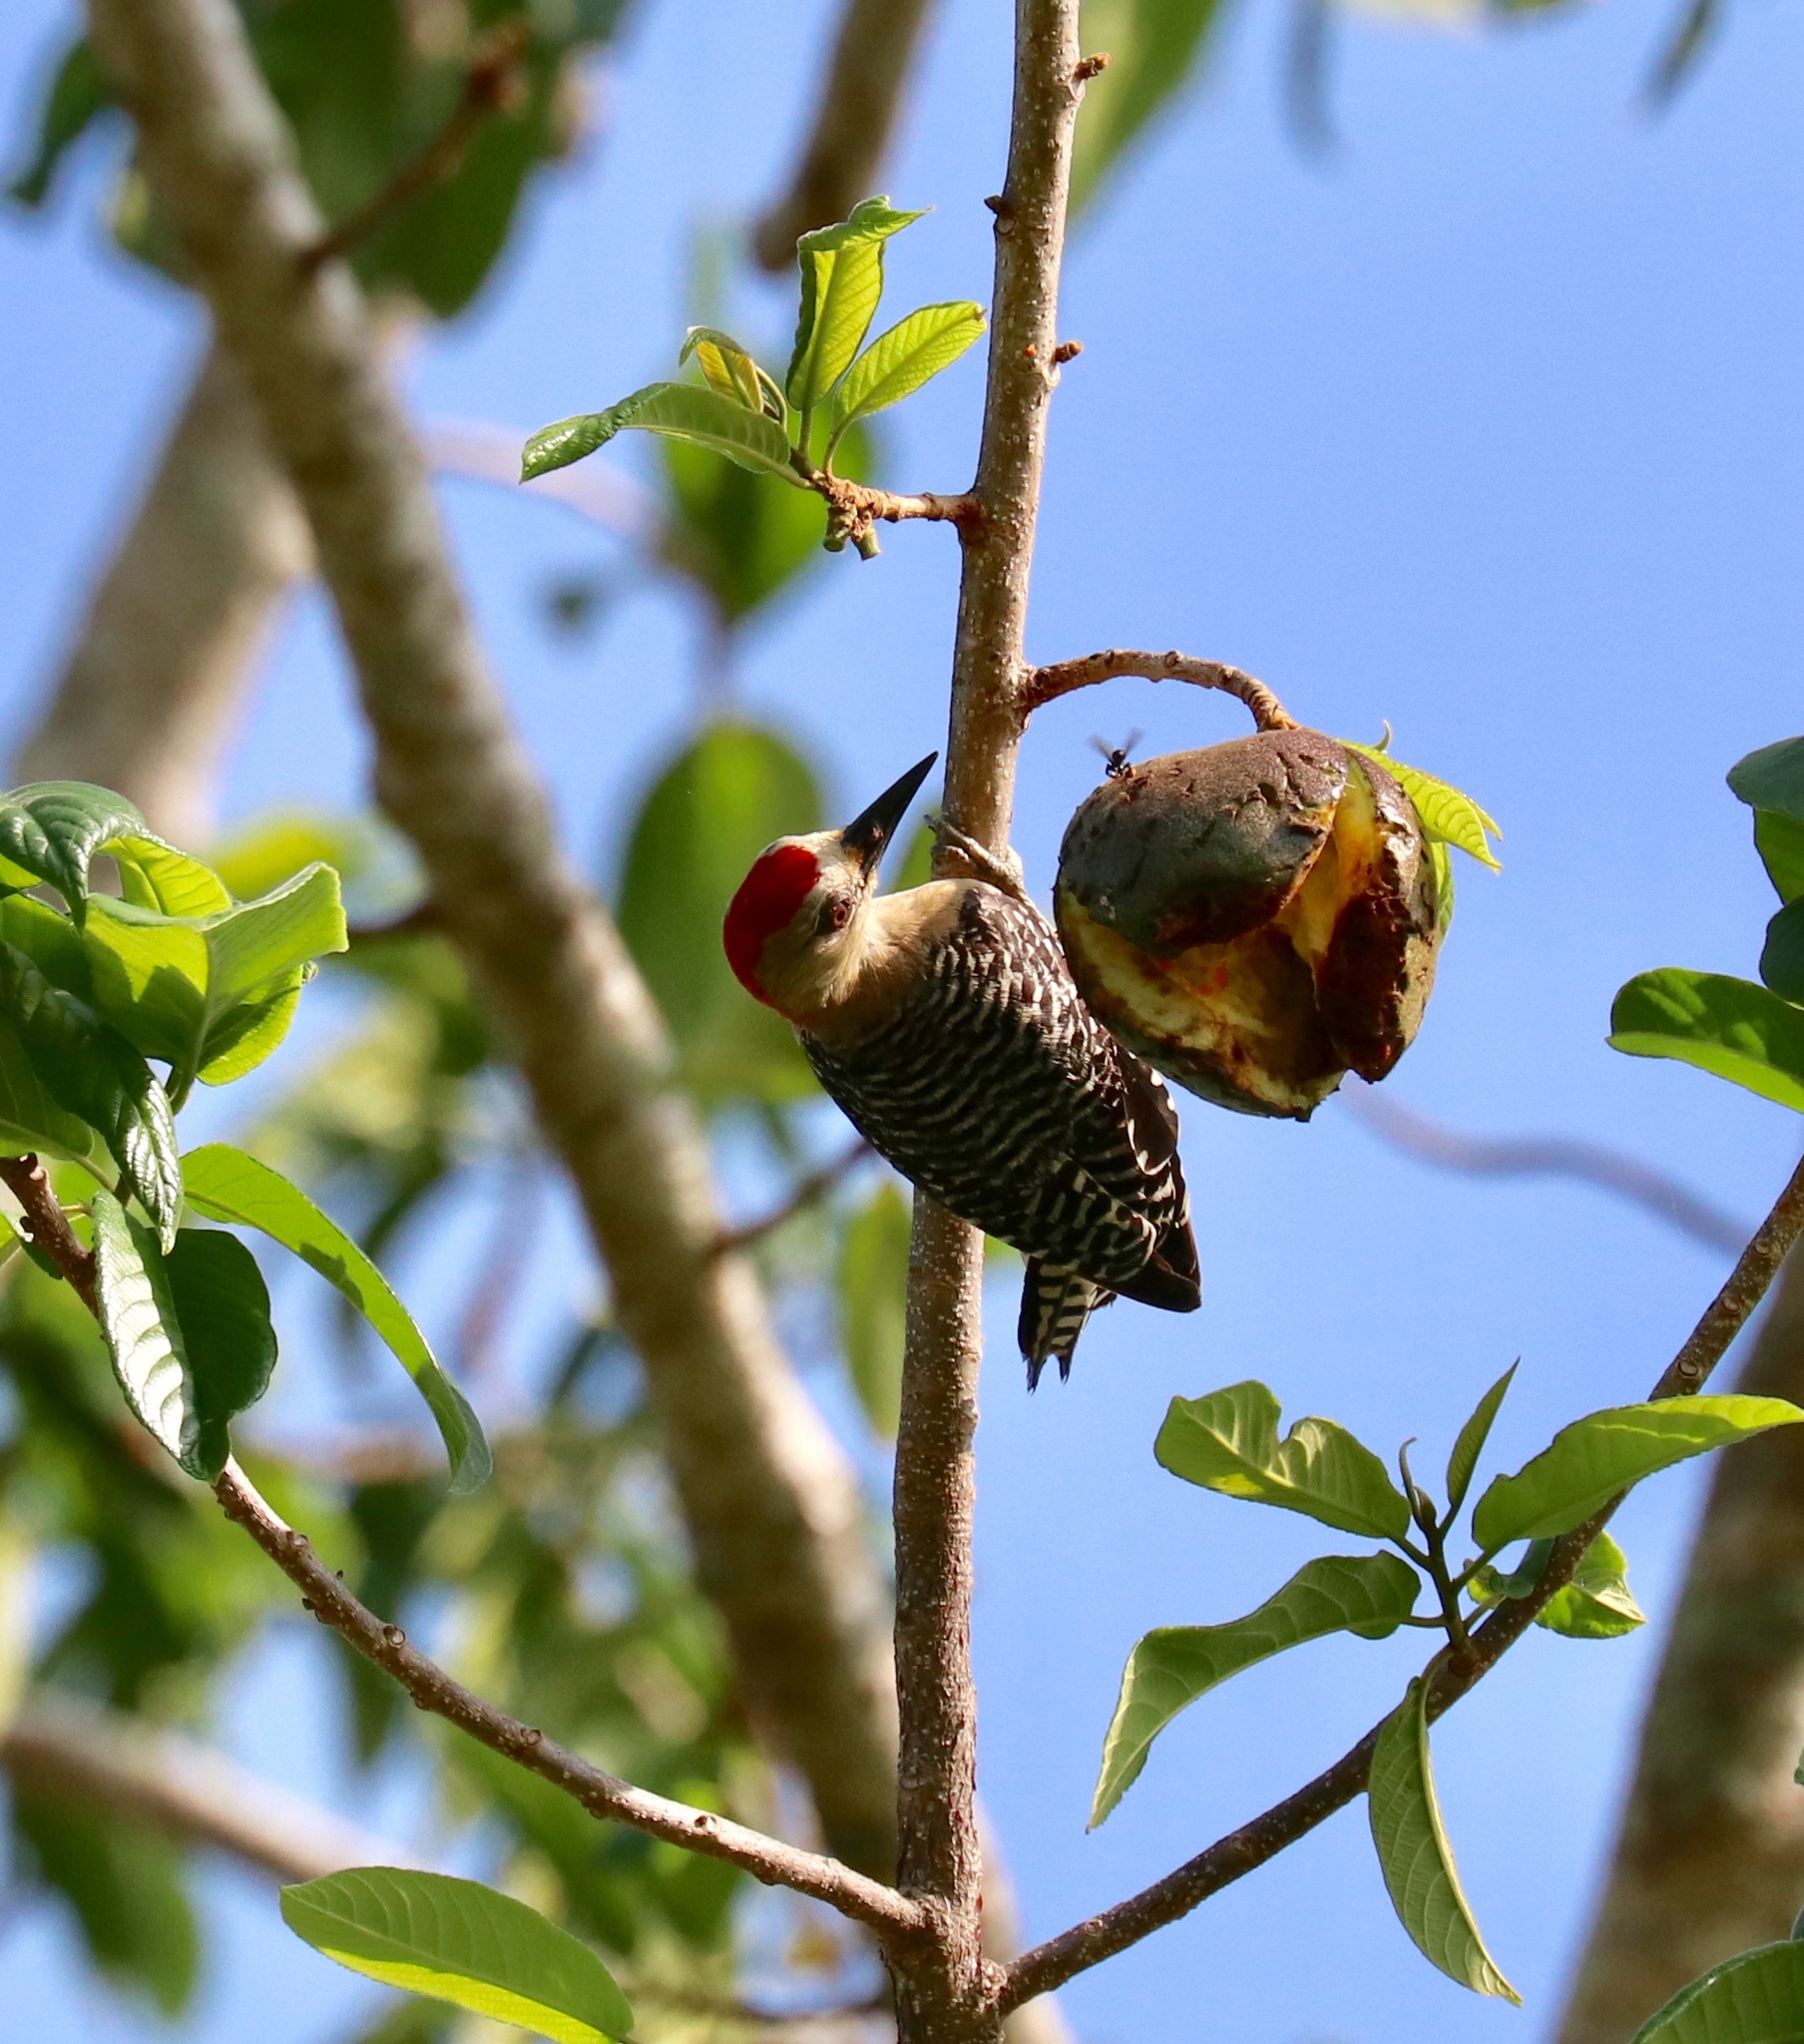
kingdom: Animalia
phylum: Chordata
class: Aves
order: Piciformes
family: Picidae
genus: Melanerpes
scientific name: Melanerpes rubricapillus
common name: Red-crowned woodpecker
